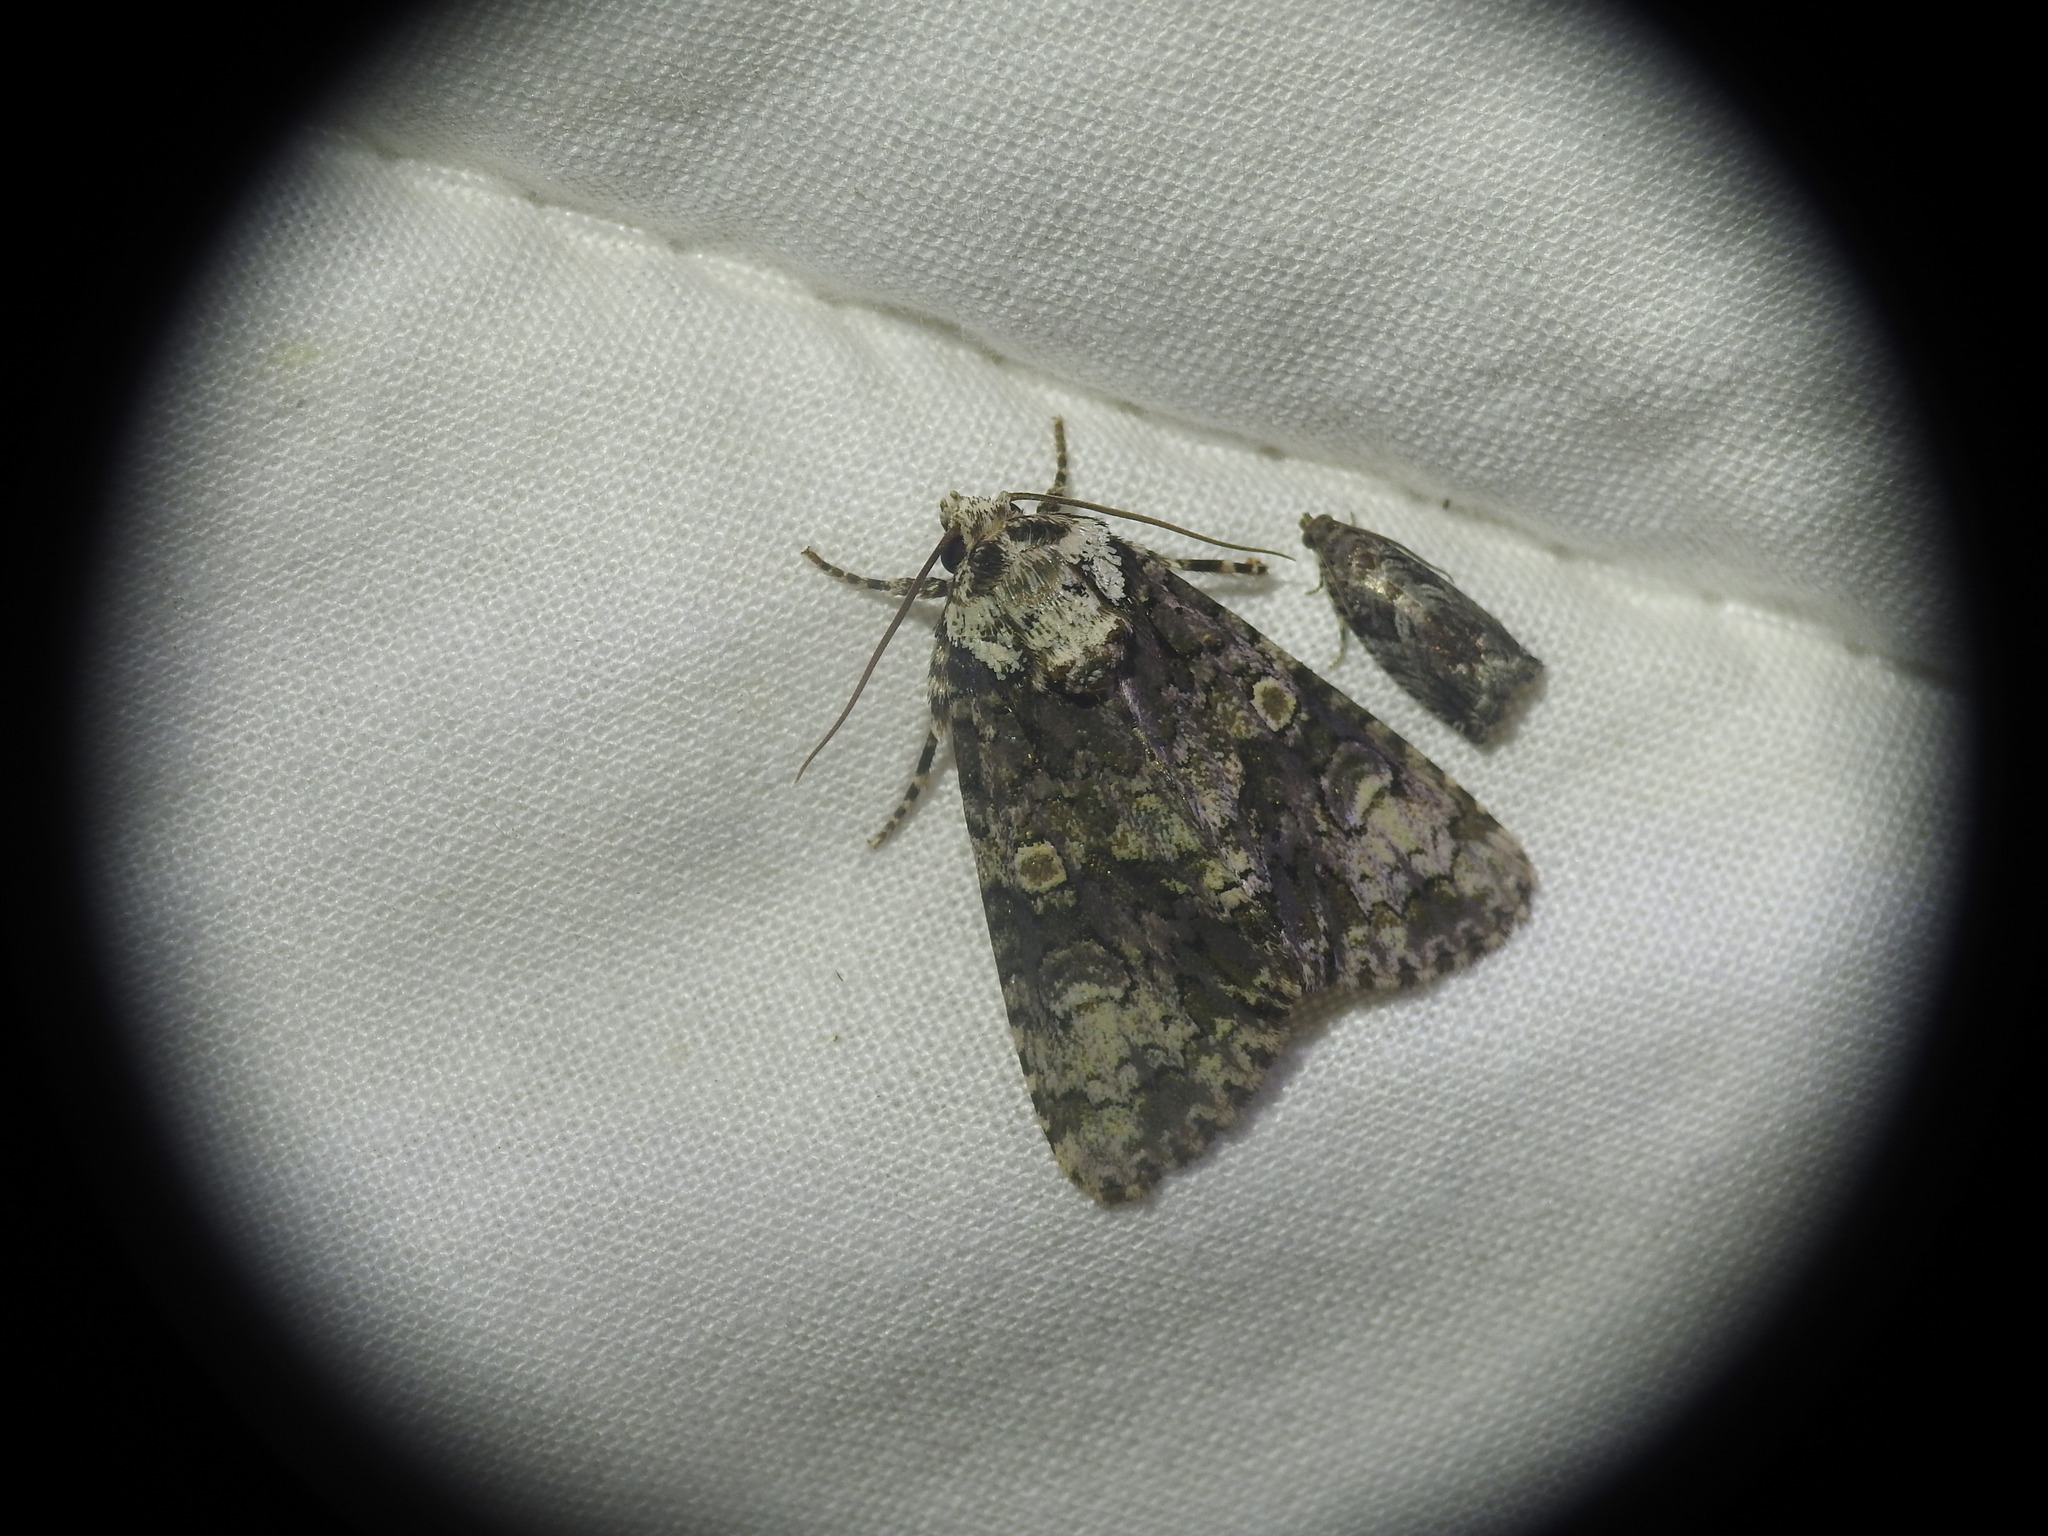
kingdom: Animalia
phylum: Arthropoda
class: Insecta
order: Lepidoptera
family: Noctuidae
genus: Craniophora
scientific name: Craniophora ligustri
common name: Coronet
